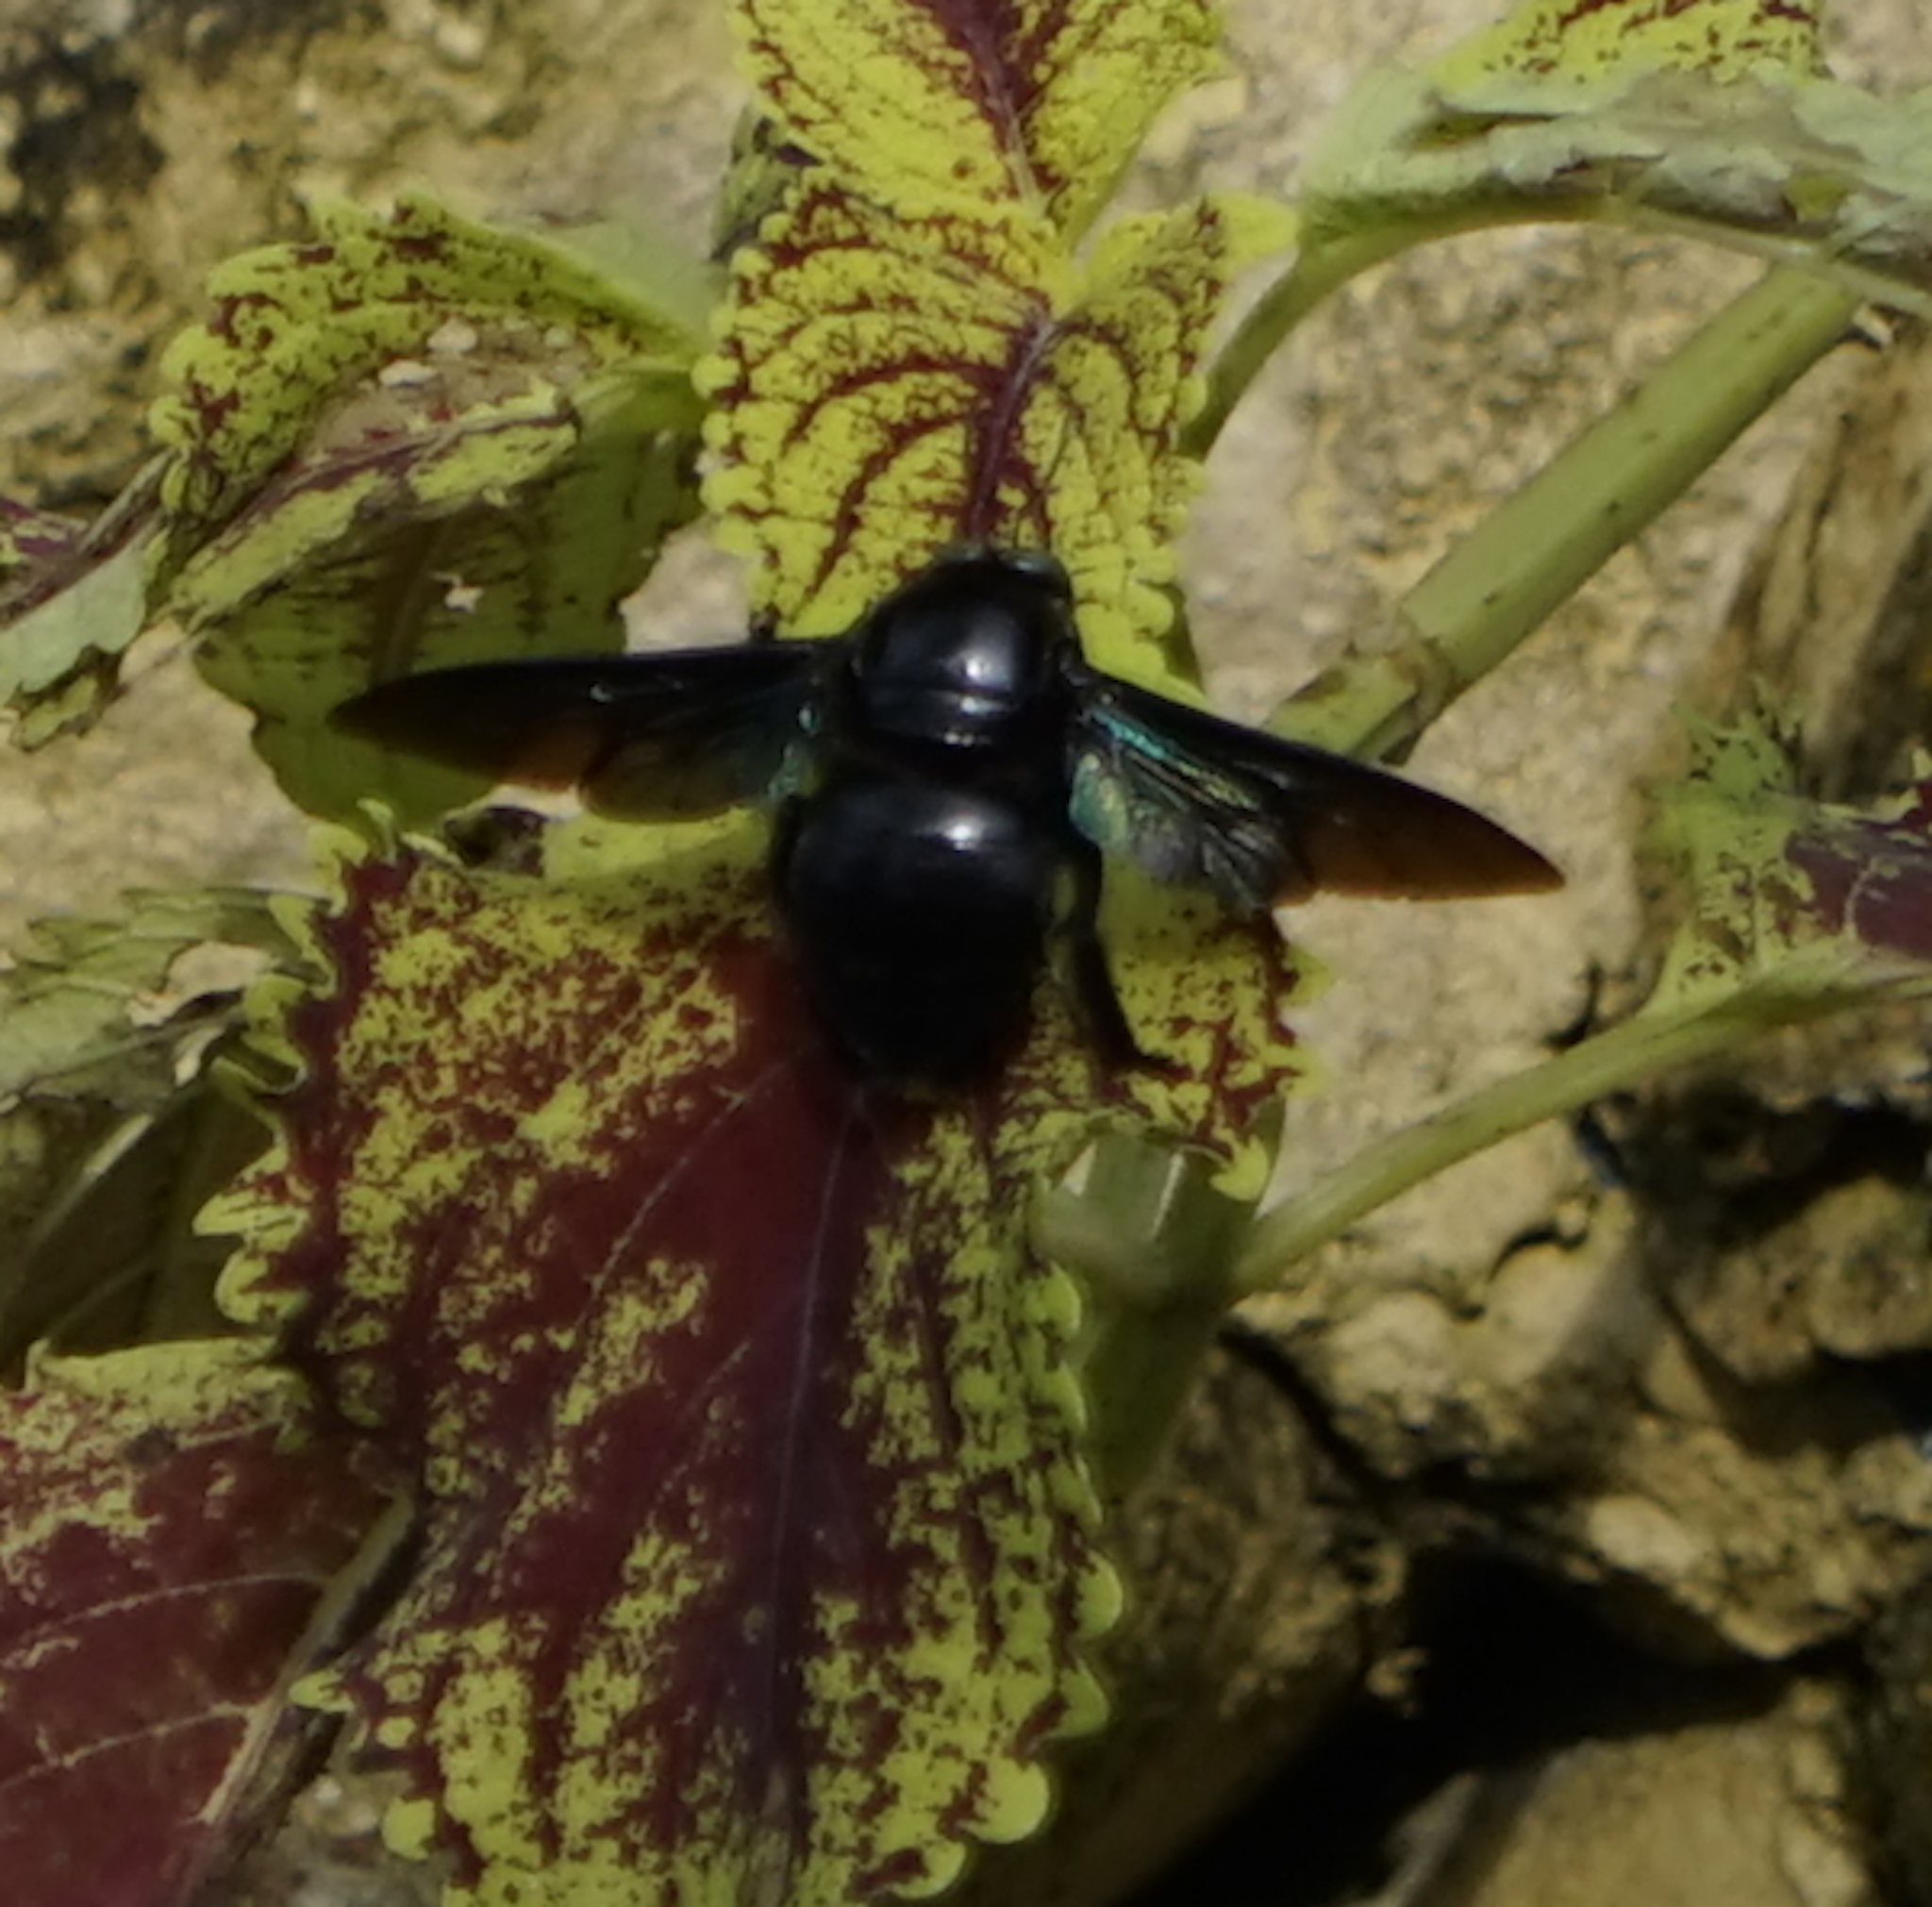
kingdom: Animalia
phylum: Arthropoda
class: Insecta
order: Hymenoptera
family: Apidae
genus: Xylocopa
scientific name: Xylocopa latipes
